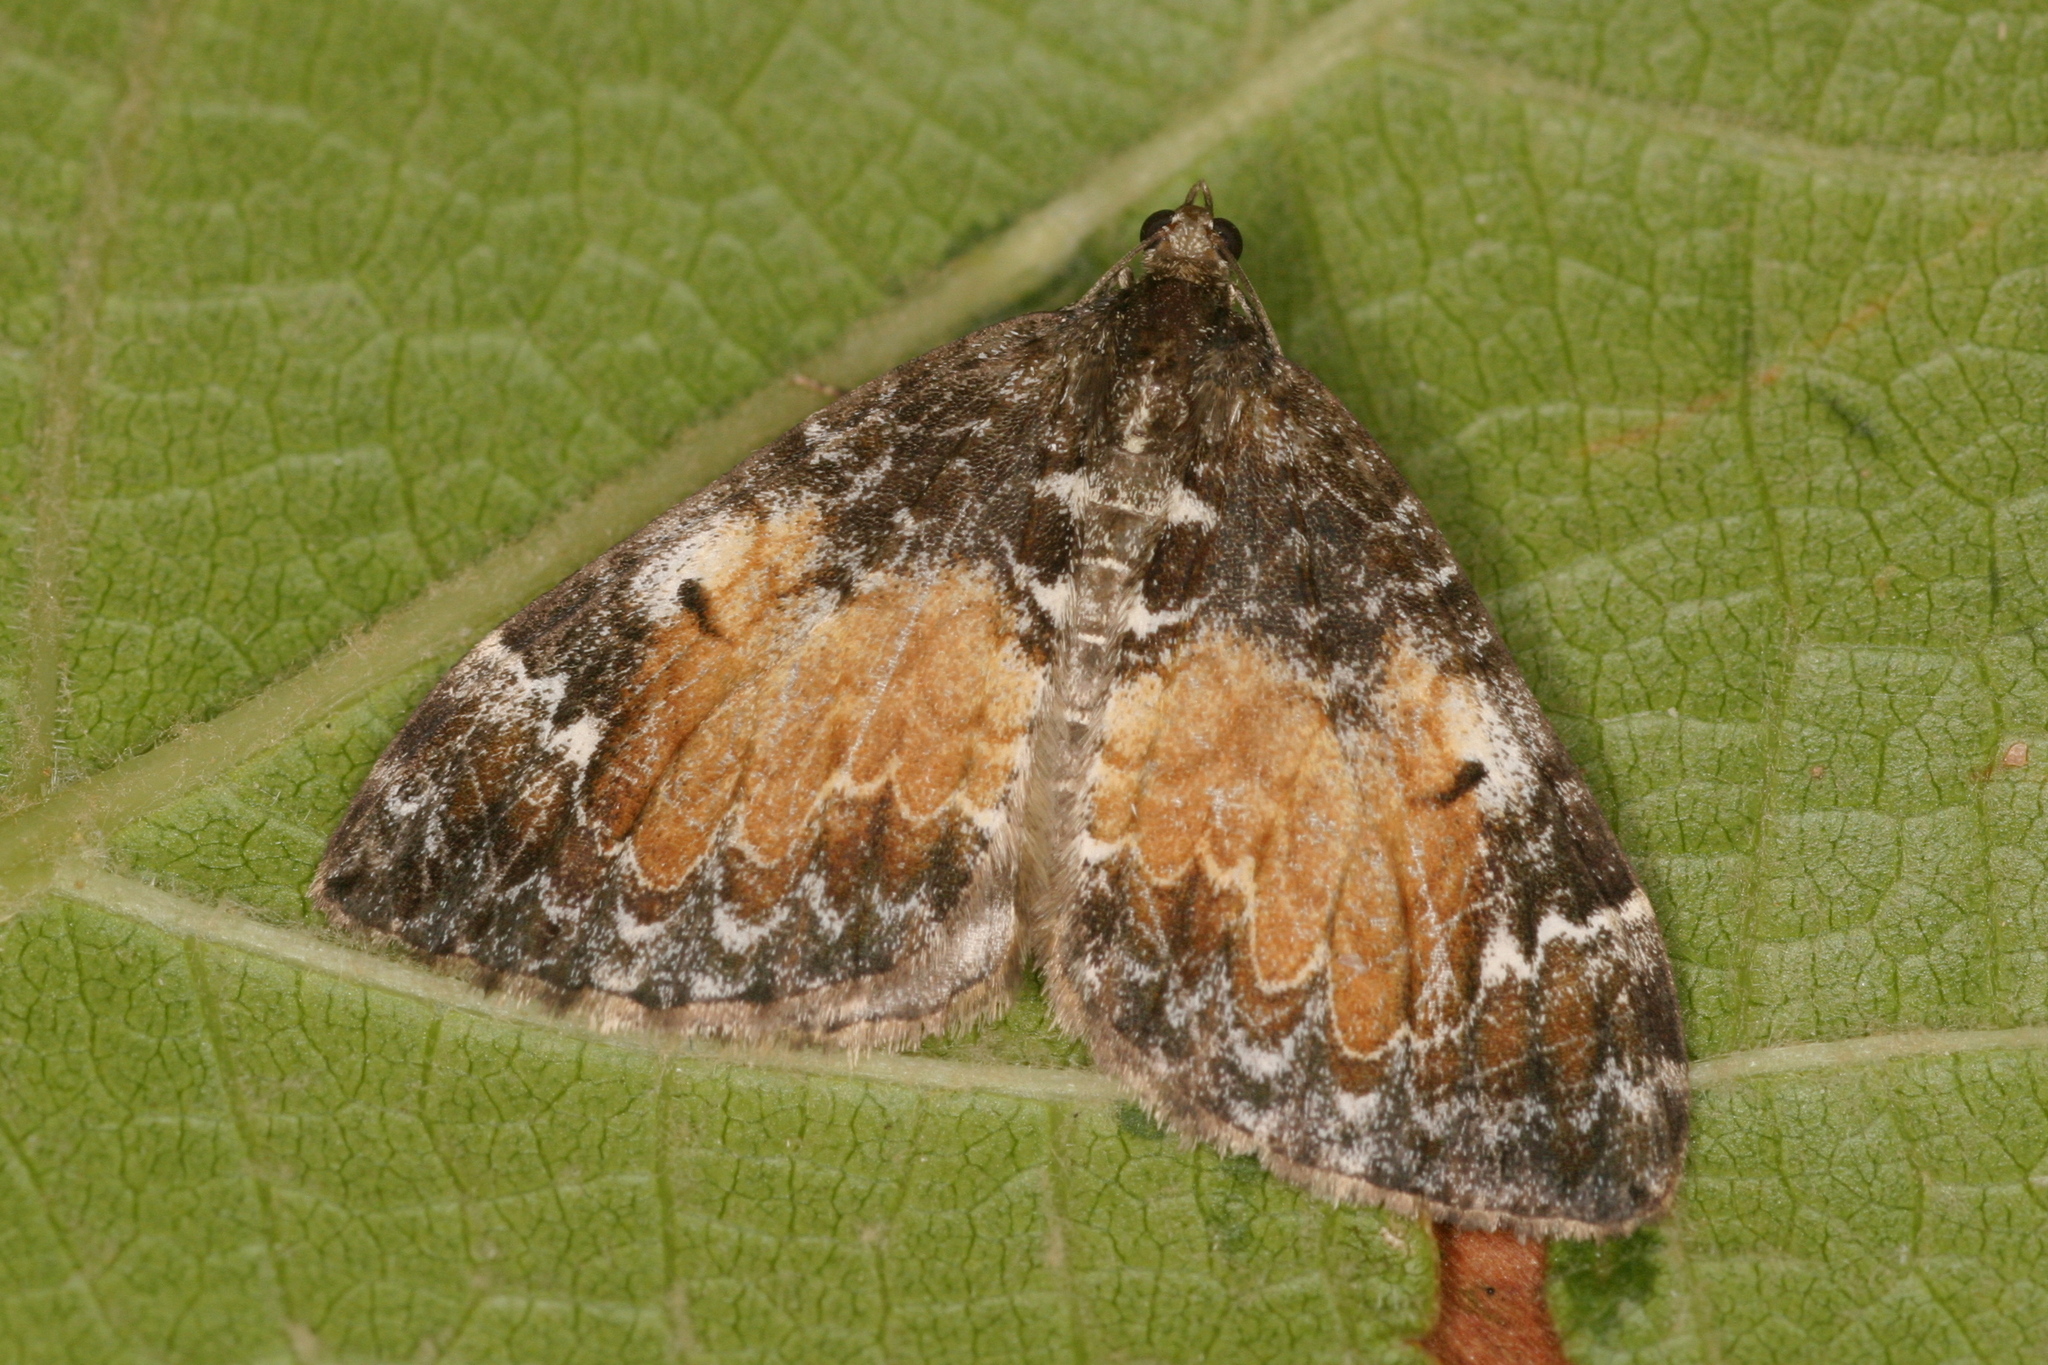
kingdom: Animalia
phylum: Arthropoda
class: Insecta
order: Lepidoptera
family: Geometridae
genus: Dysstroma
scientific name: Dysstroma truncata
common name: Common marbled carpet
